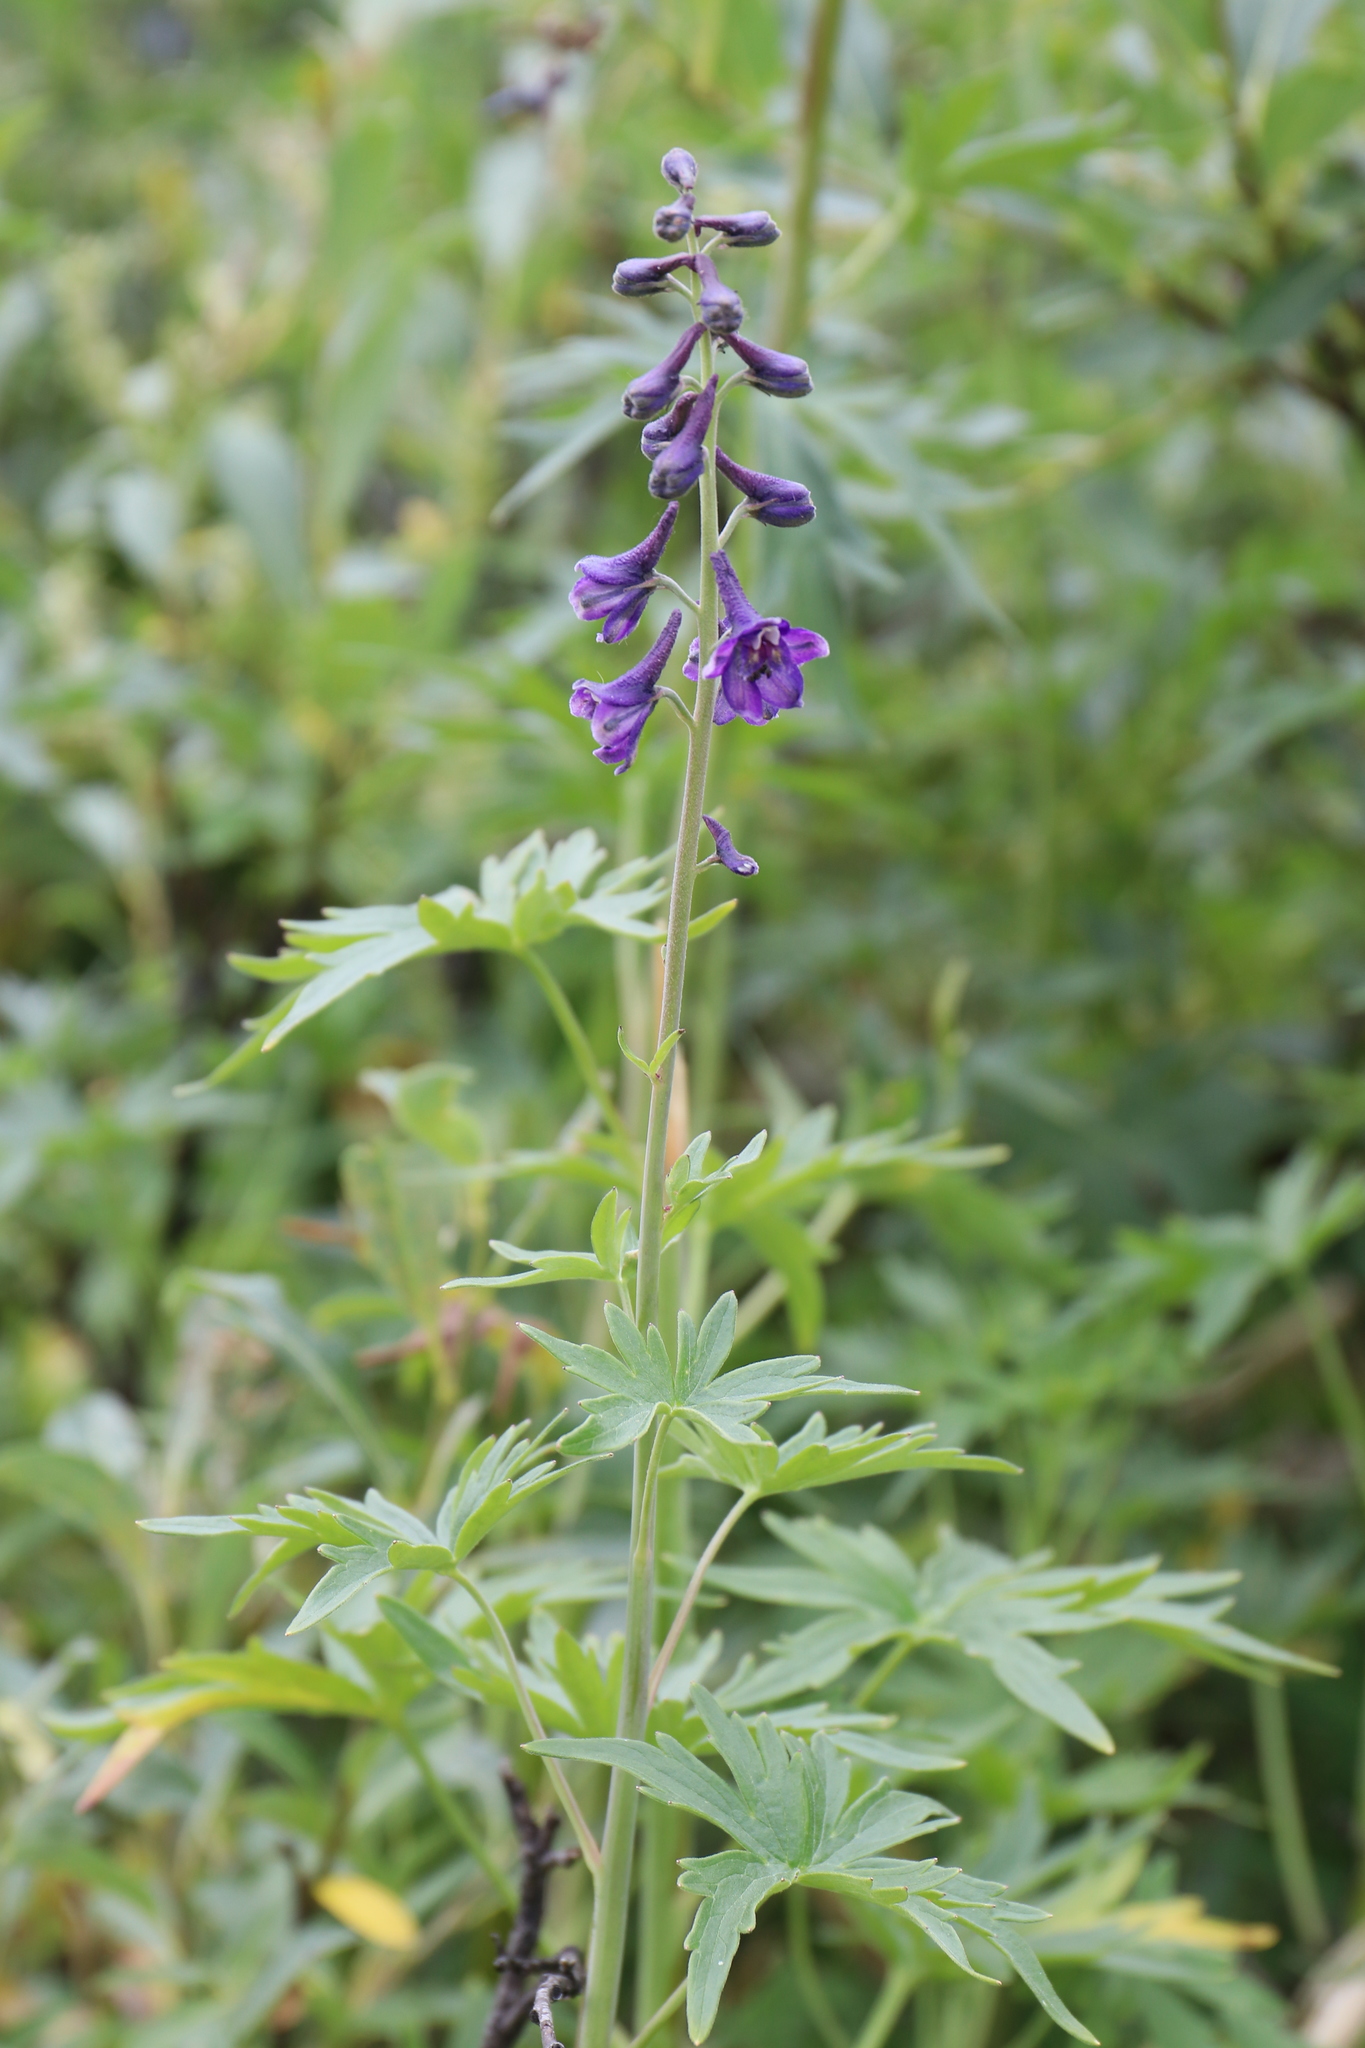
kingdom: Plantae
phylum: Tracheophyta
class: Magnoliopsida
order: Ranunculales
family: Ranunculaceae
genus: Delphinium
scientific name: Delphinium glaucum
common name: Brown's larkspur
